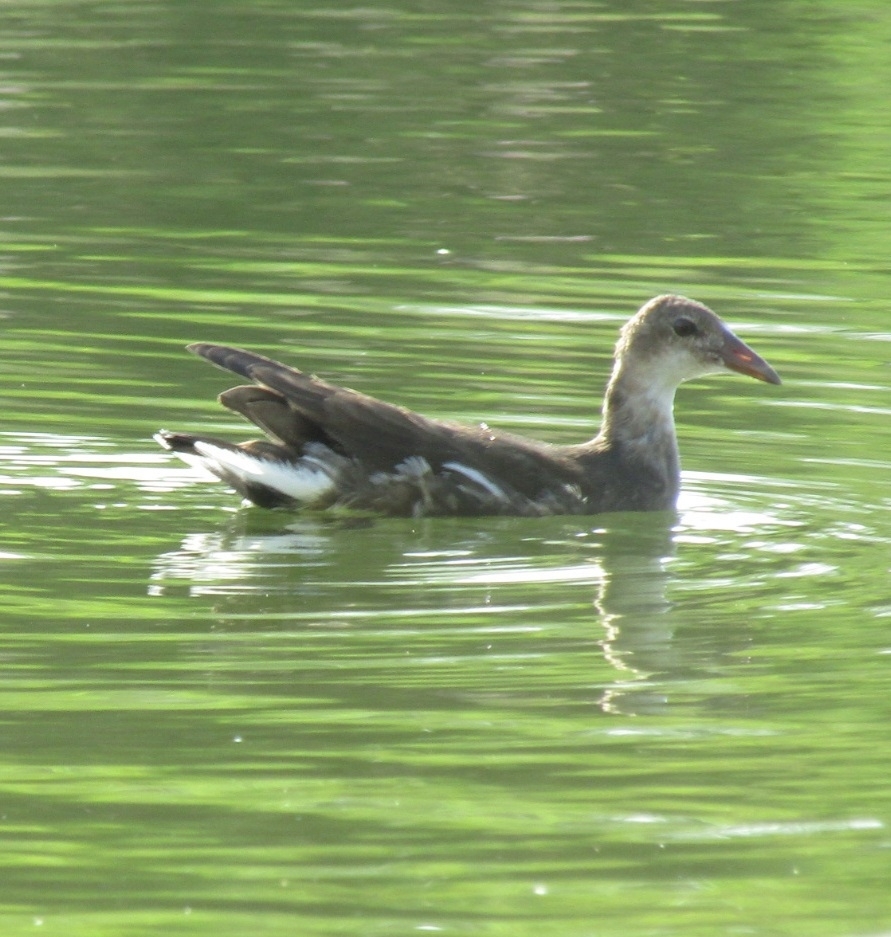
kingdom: Animalia
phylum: Chordata
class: Aves
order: Gruiformes
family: Rallidae
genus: Gallinula
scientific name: Gallinula chloropus
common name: Common moorhen
